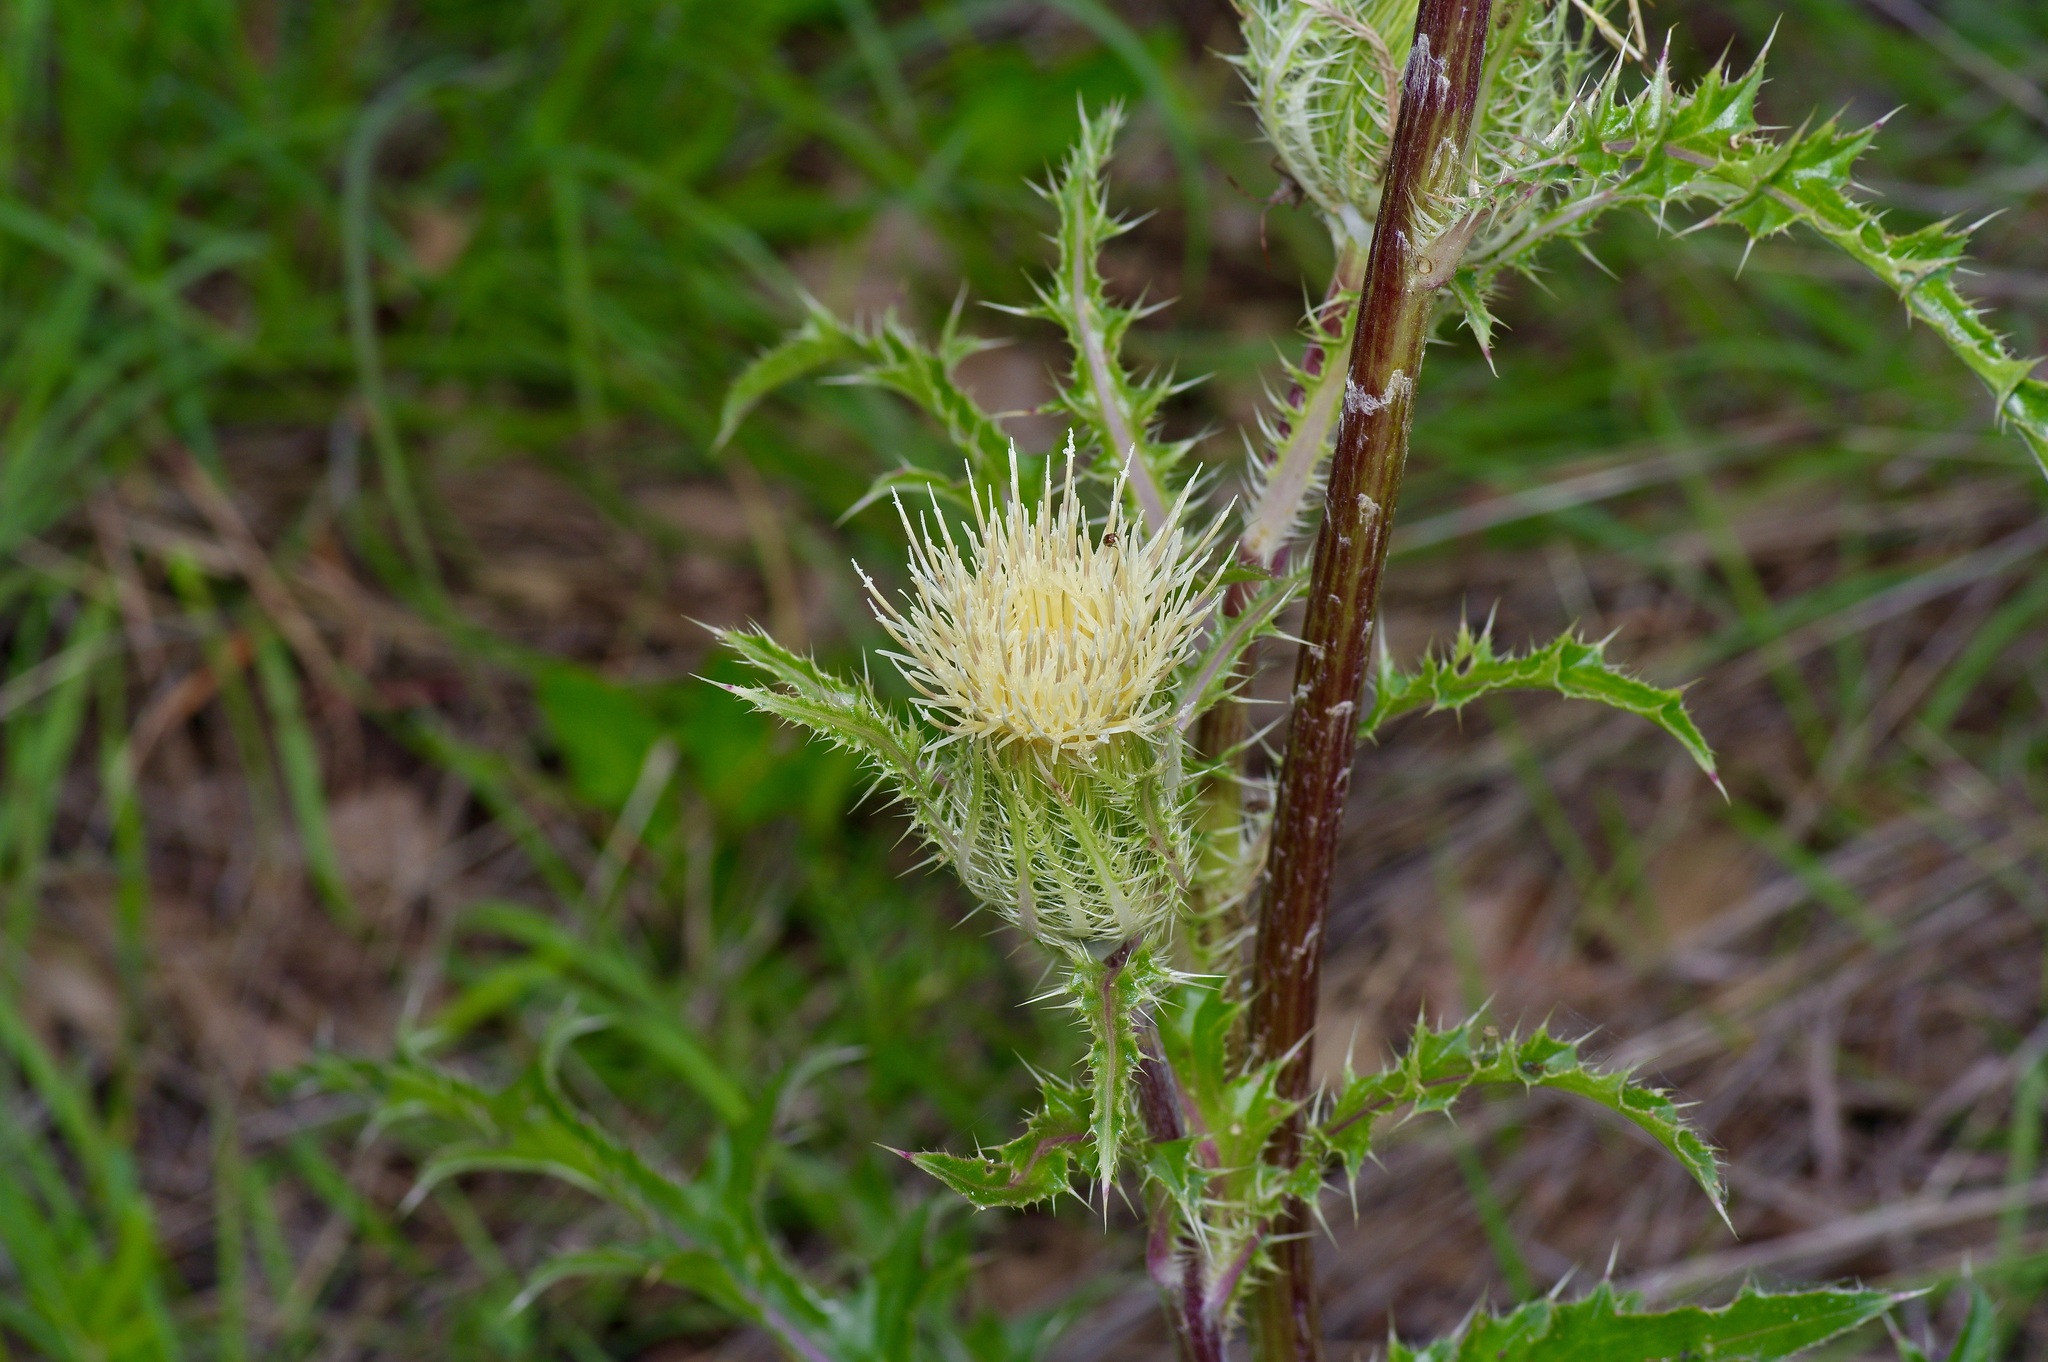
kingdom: Plantae
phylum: Tracheophyta
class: Magnoliopsida
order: Asterales
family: Asteraceae
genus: Cirsium
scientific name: Cirsium horridulum
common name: Bristly thistle
